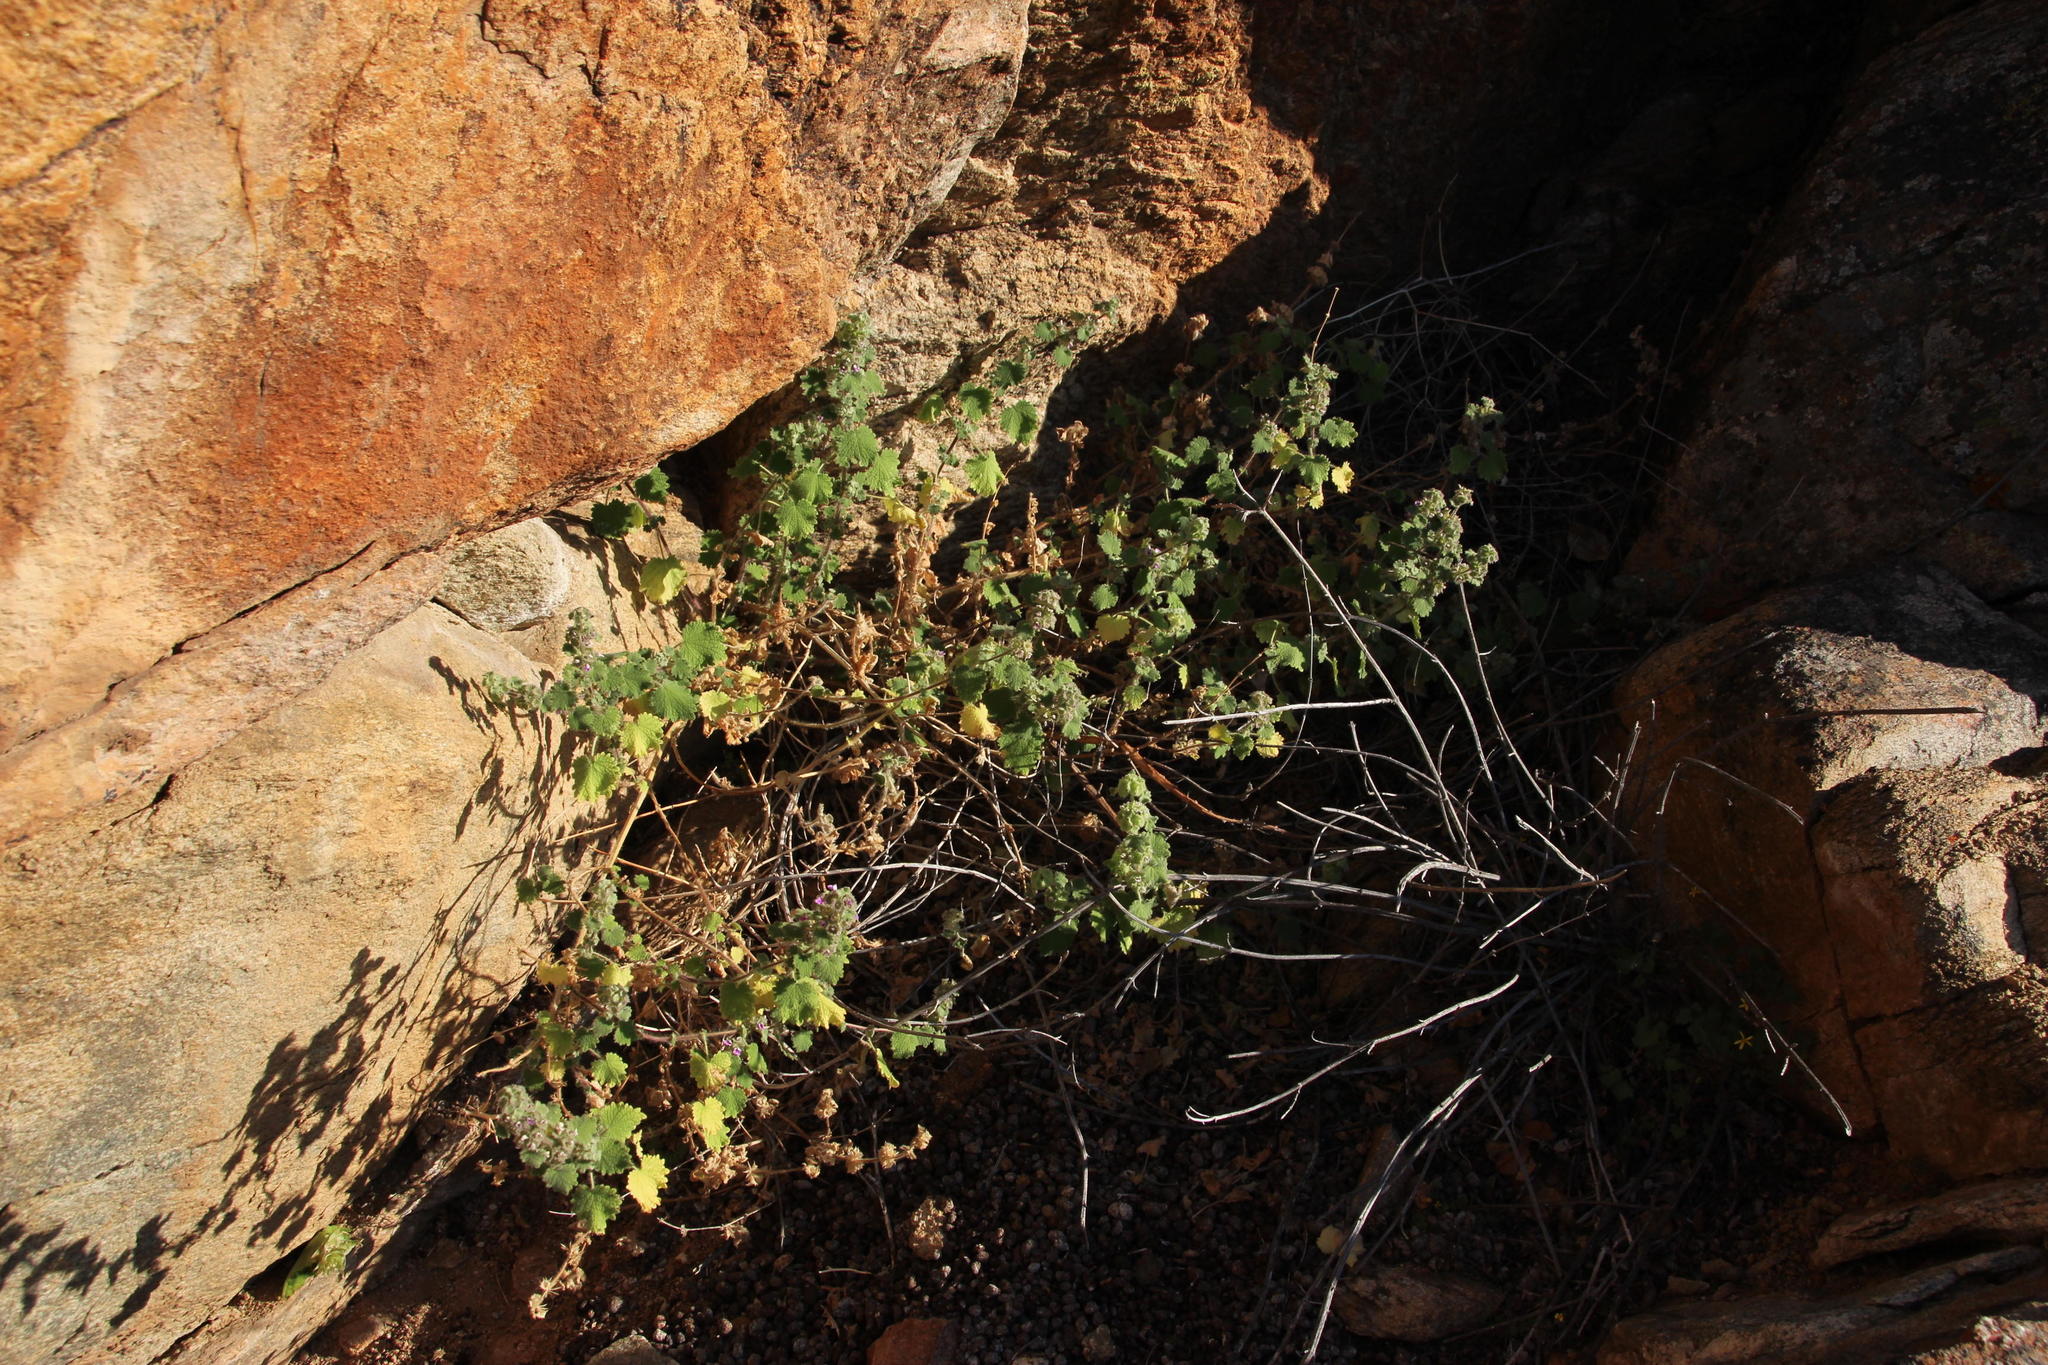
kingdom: Plantae
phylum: Tracheophyta
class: Magnoliopsida
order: Lamiales
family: Lamiaceae
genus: Pseudodictamnus
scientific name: Pseudodictamnus africanus
